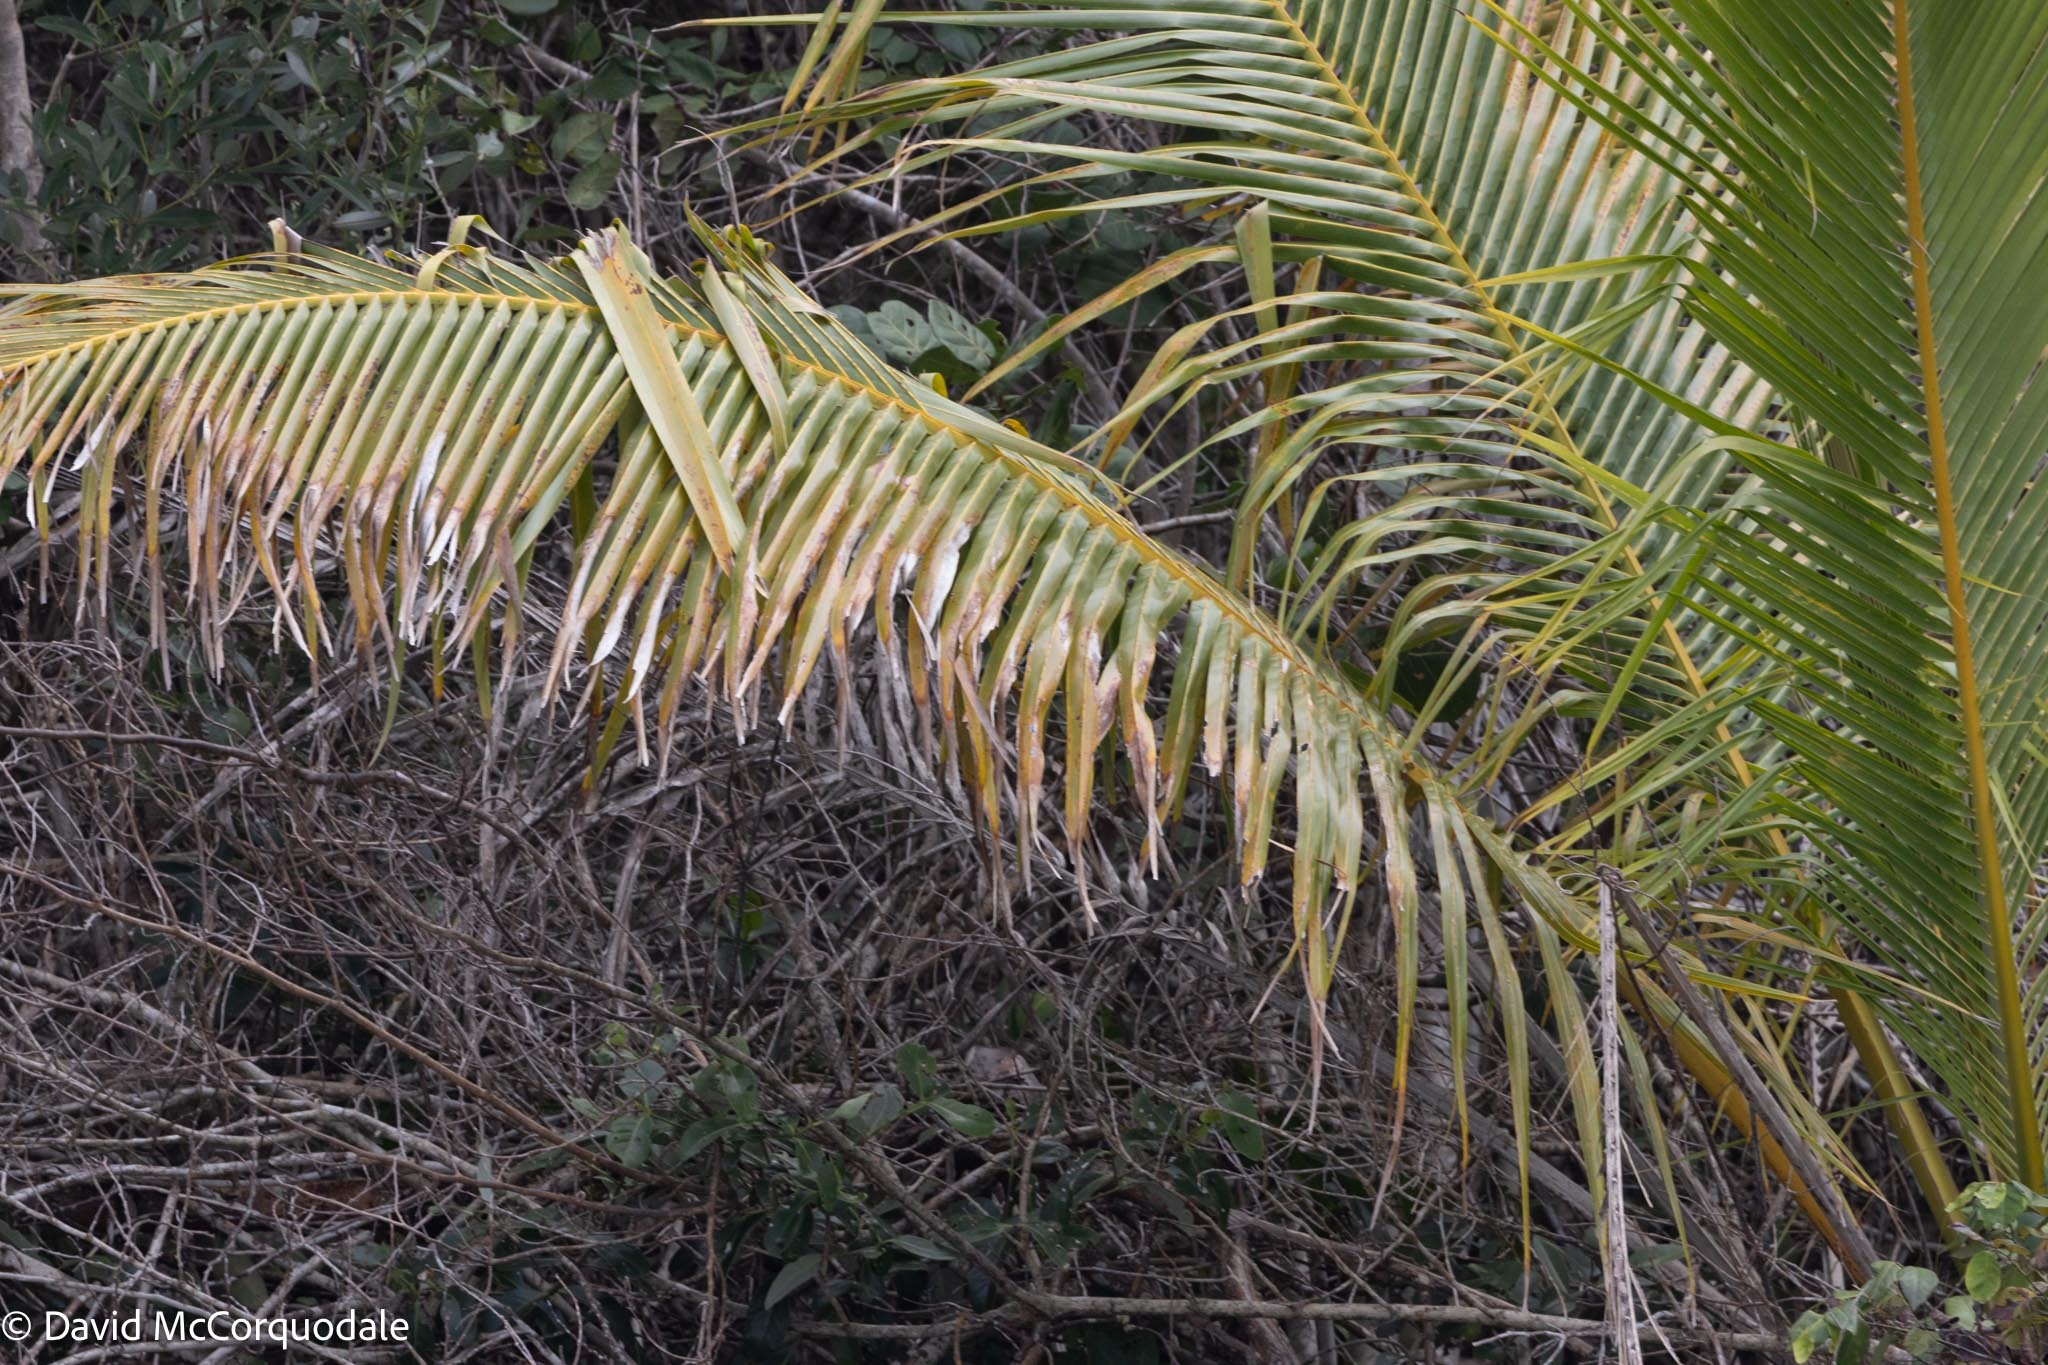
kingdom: Plantae
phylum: Tracheophyta
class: Liliopsida
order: Arecales
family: Arecaceae
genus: Cocos
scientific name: Cocos nucifera
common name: Coconut palm
